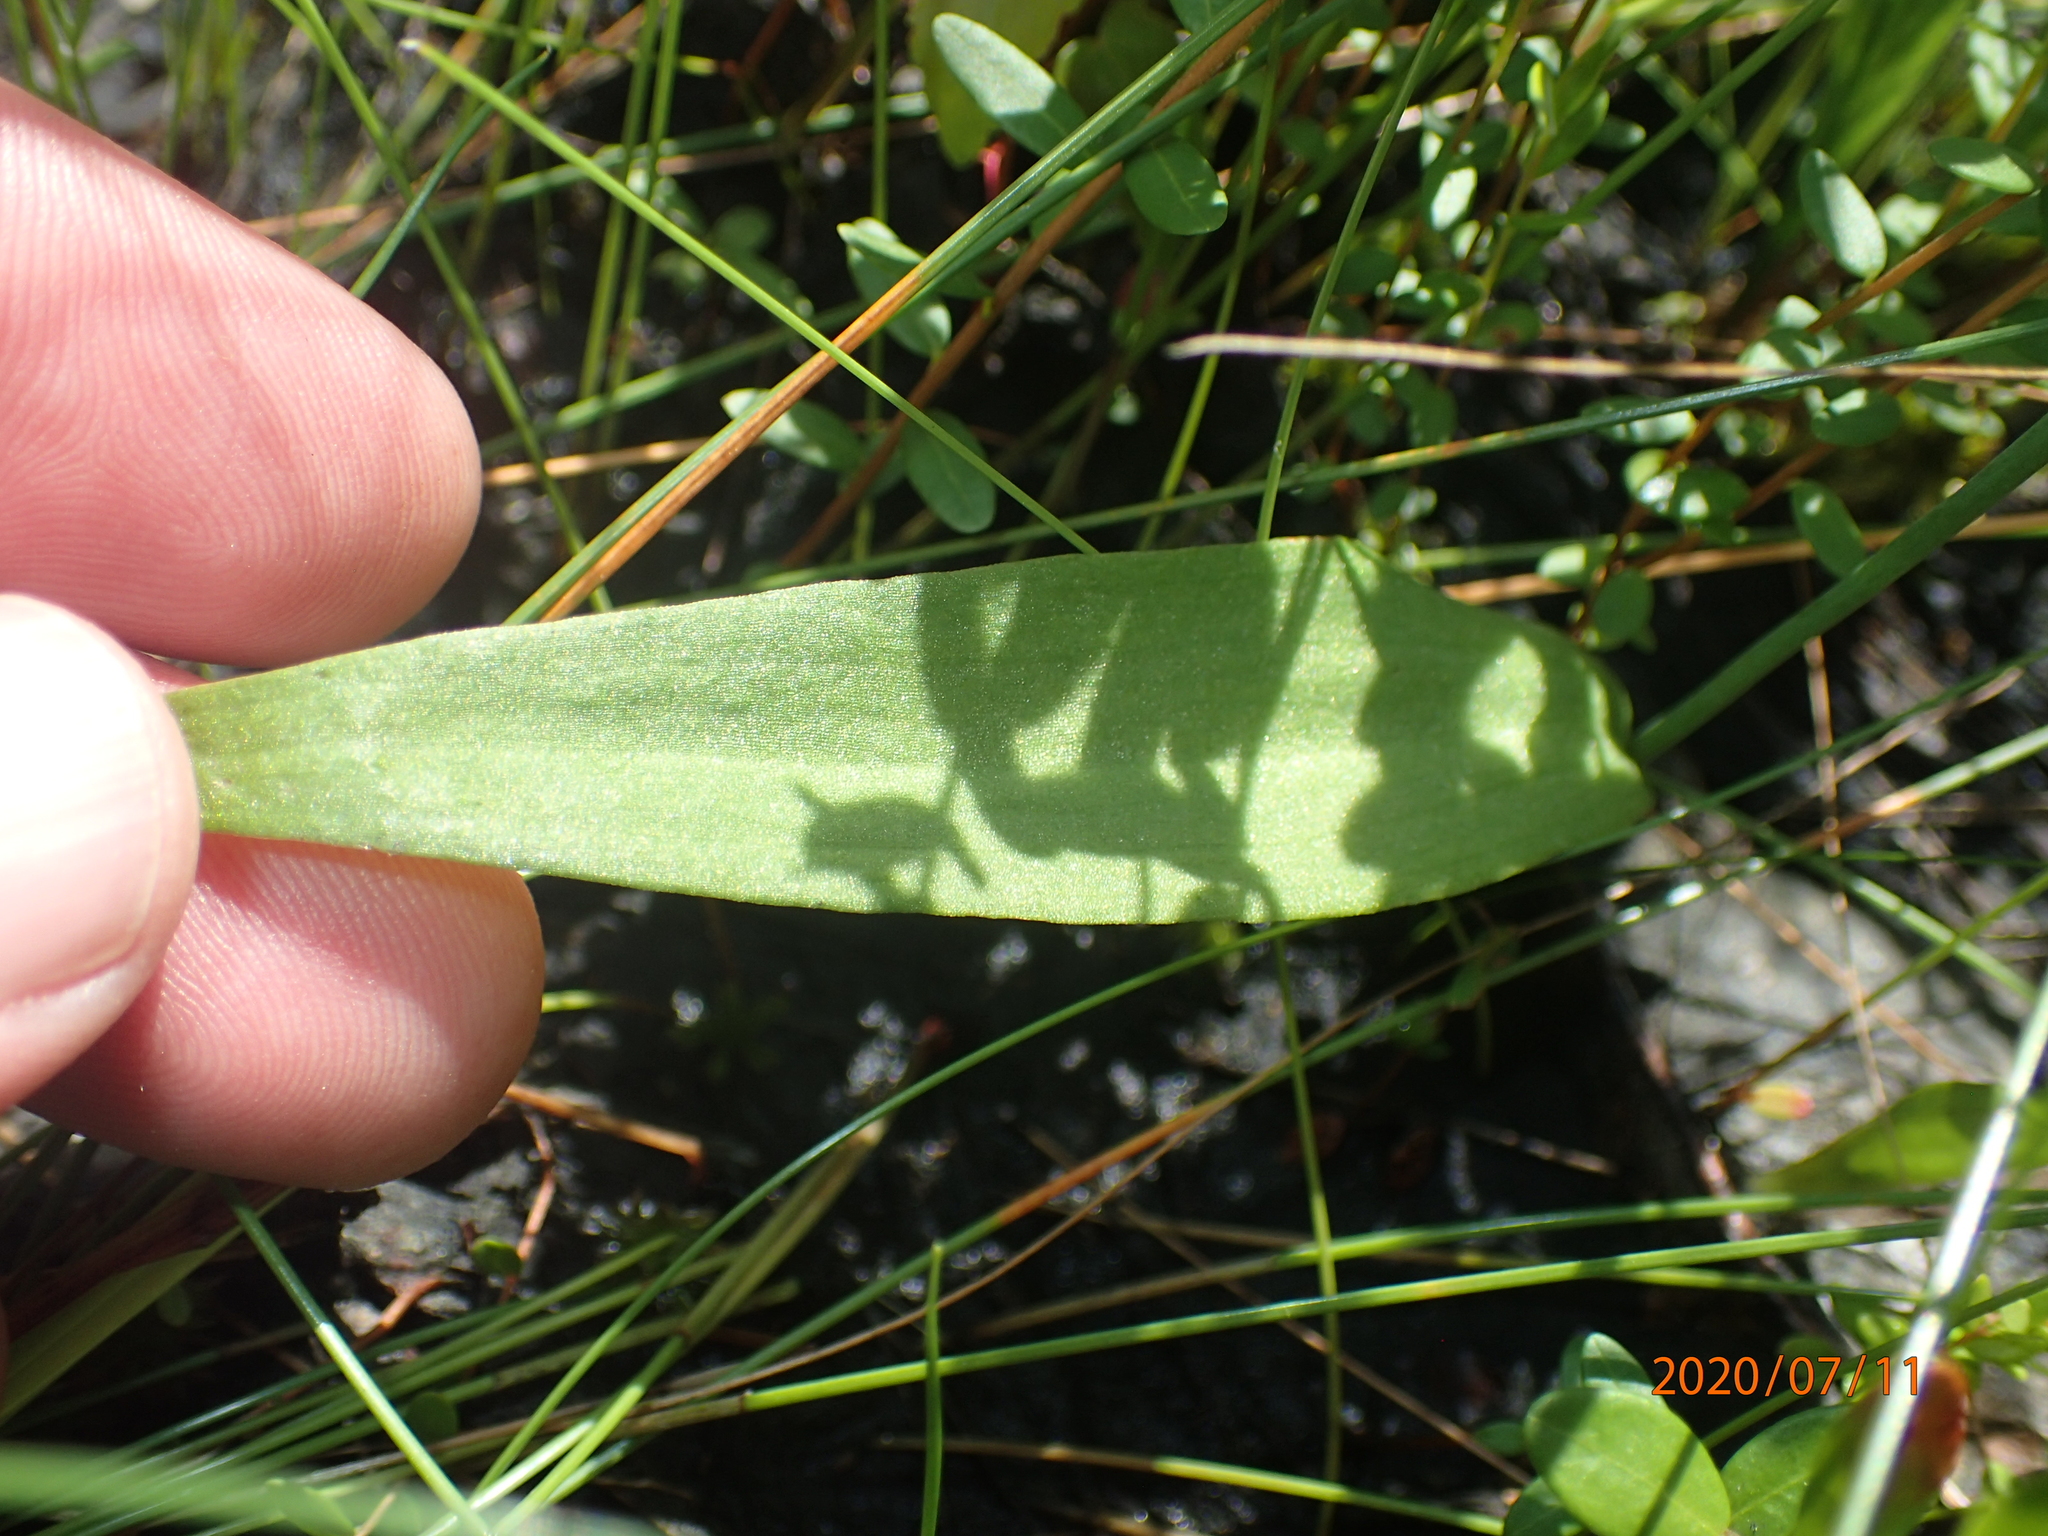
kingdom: Plantae
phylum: Tracheophyta
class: Liliopsida
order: Asparagales
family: Orchidaceae
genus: Pogonia
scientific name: Pogonia ophioglossoides
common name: Rose pogonia
